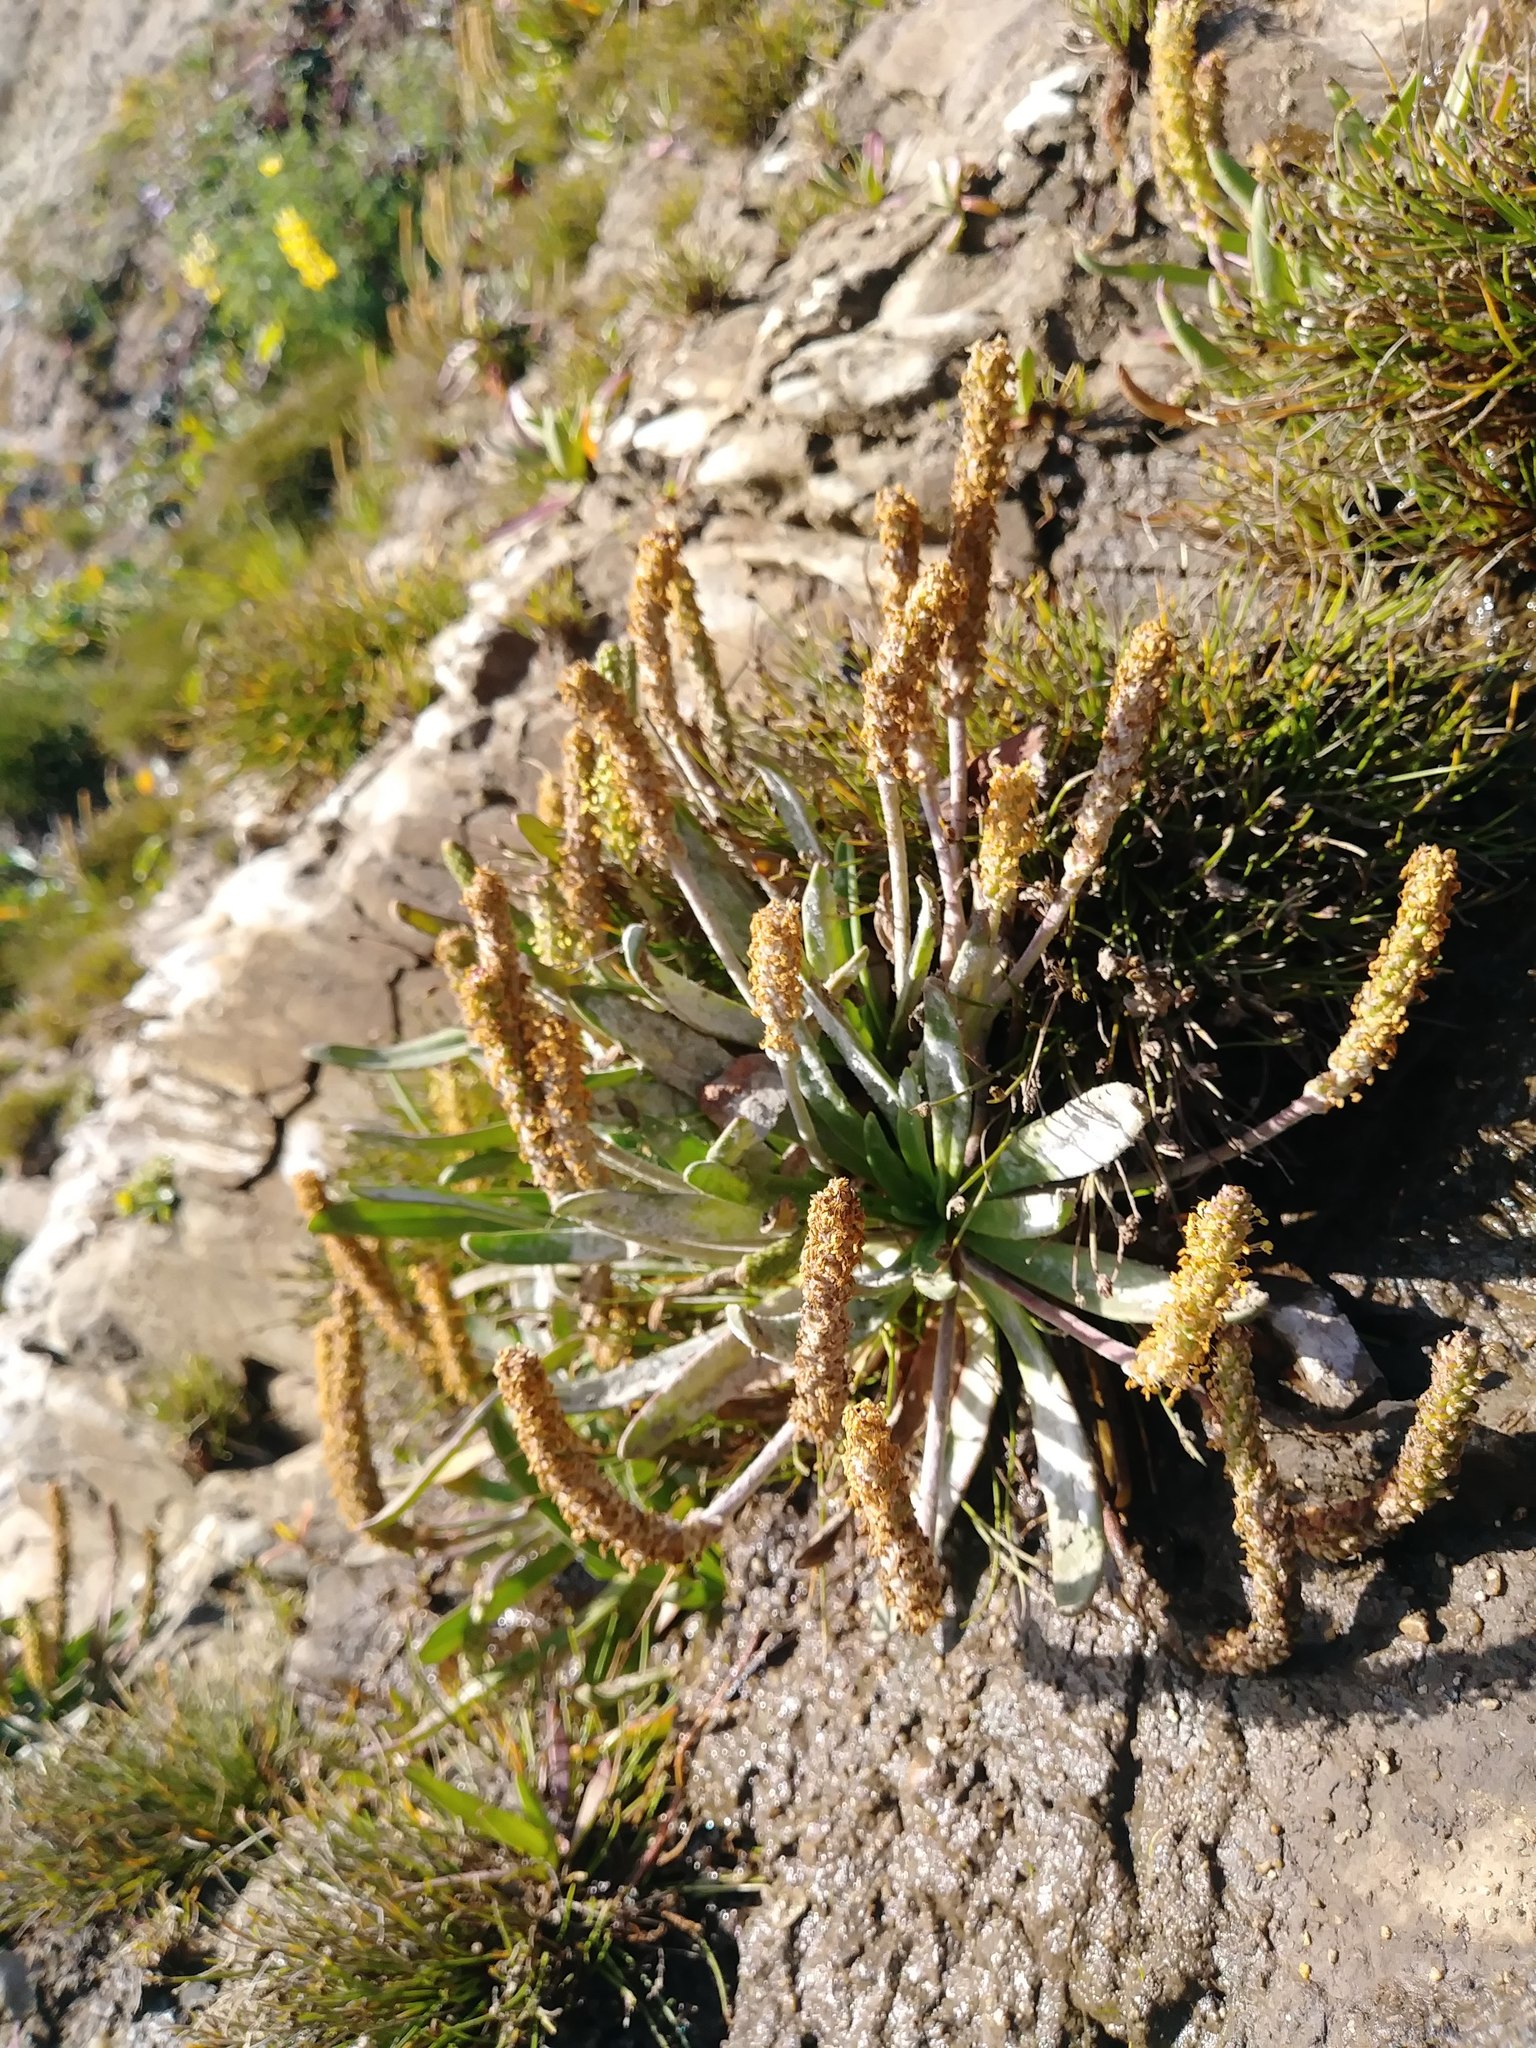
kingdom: Plantae
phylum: Tracheophyta
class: Magnoliopsida
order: Lamiales
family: Plantaginaceae
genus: Plantago
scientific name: Plantago maritima
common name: Sea plantain
